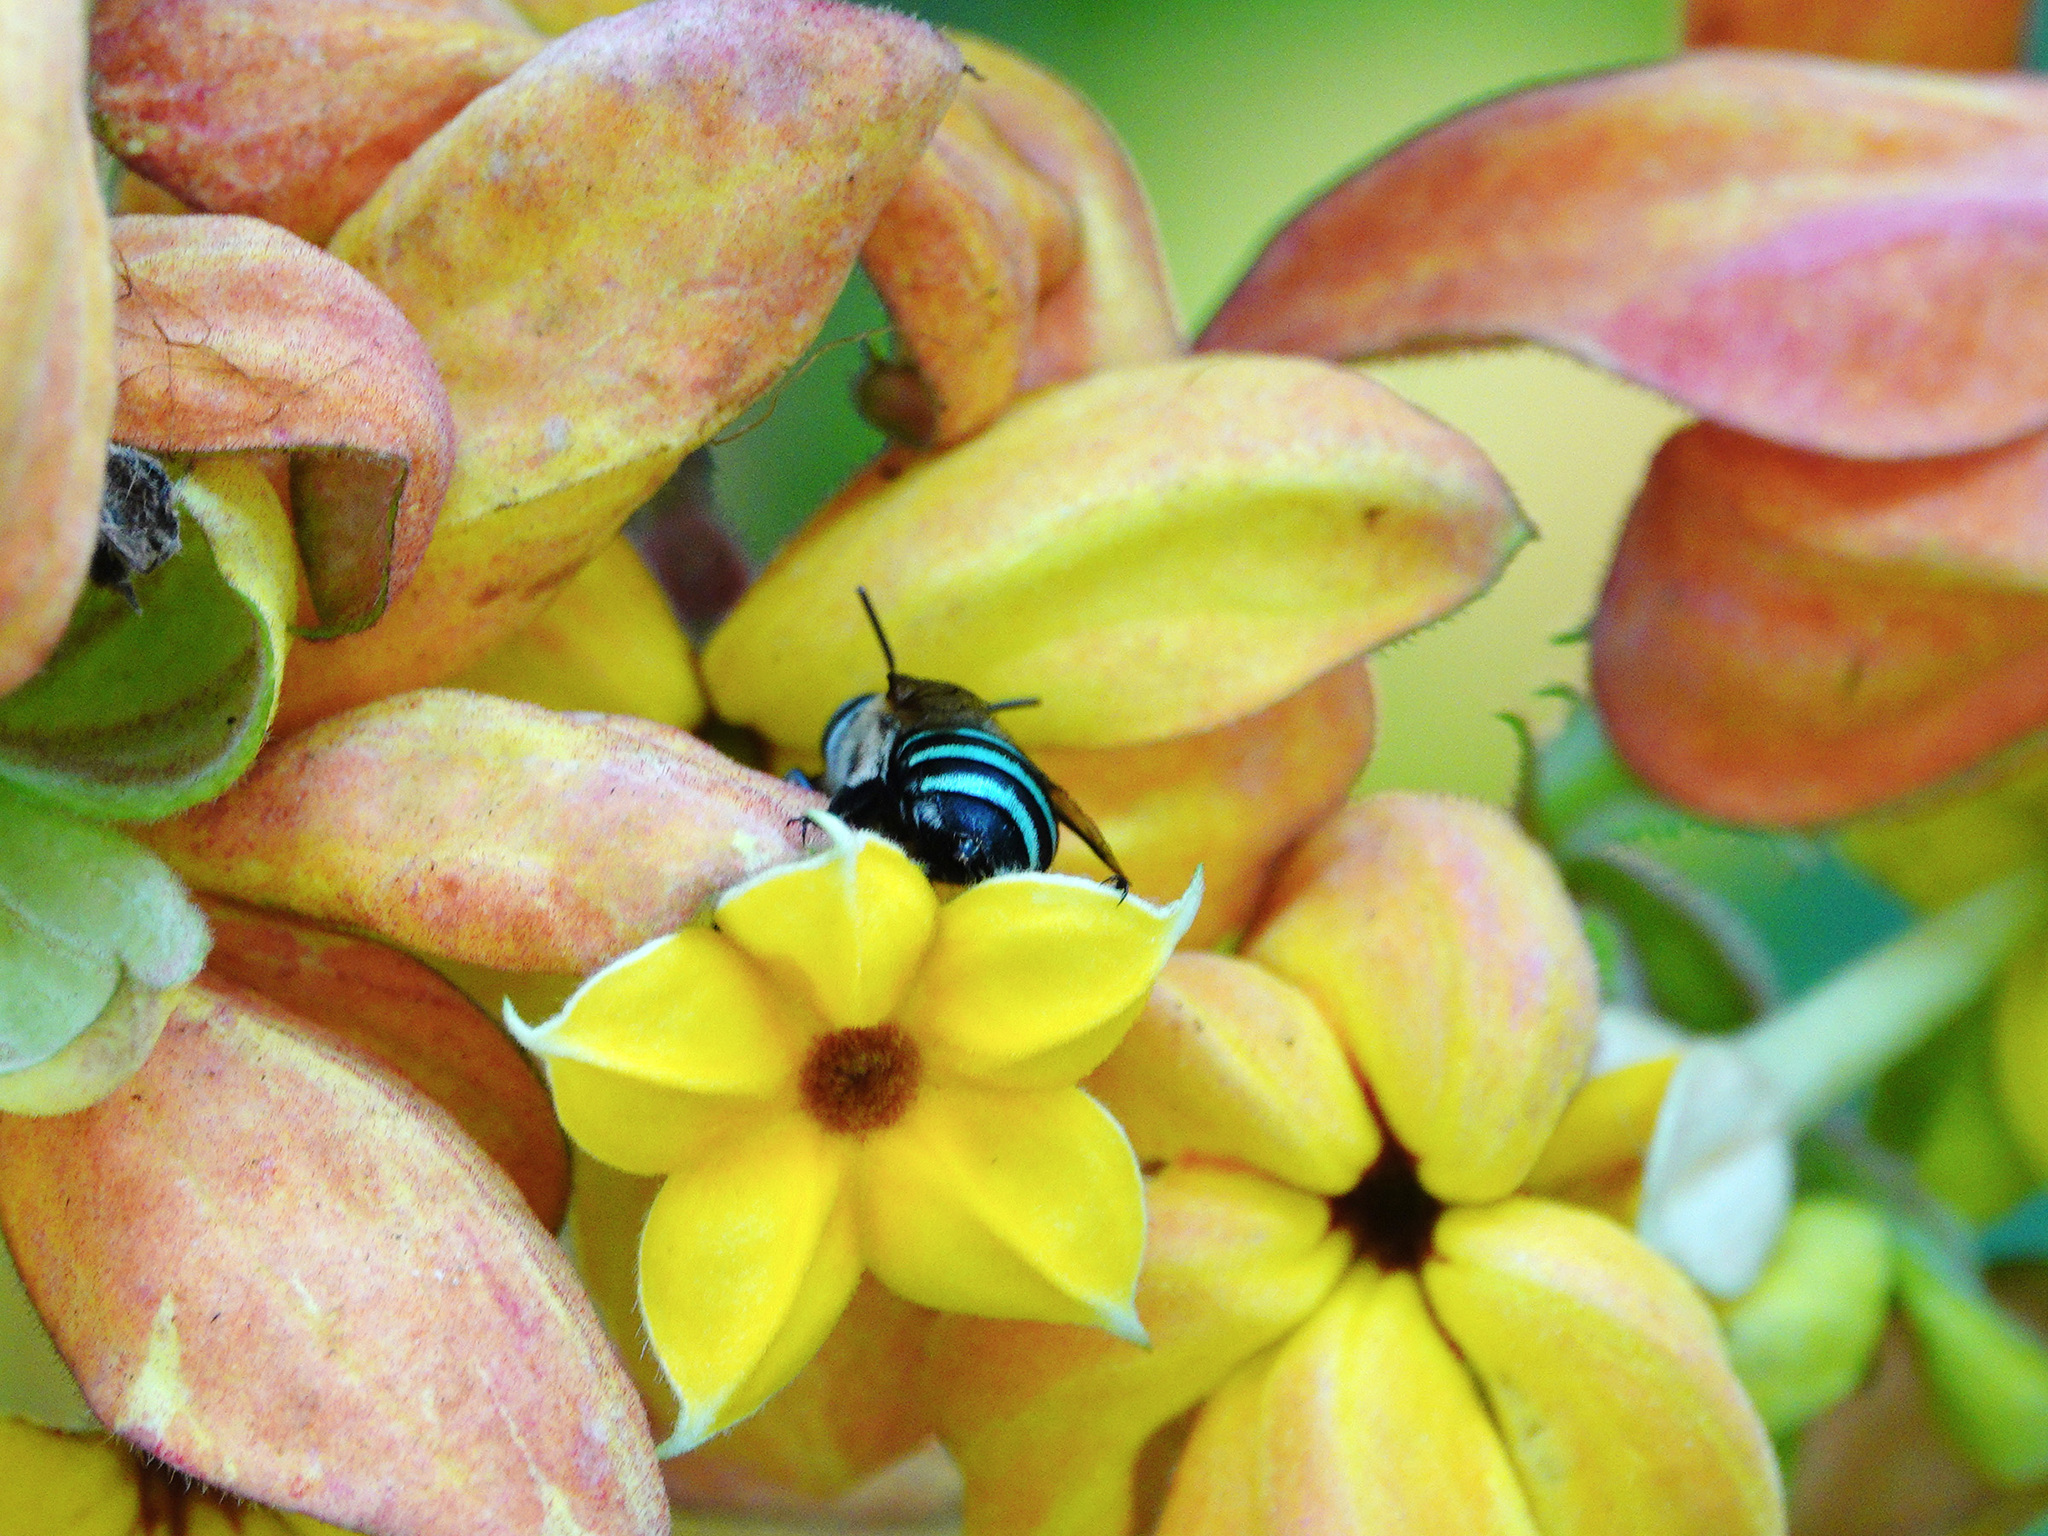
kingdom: Animalia
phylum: Arthropoda
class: Insecta
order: Hymenoptera
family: Apidae
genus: Amegilla
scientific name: Amegilla andrewsi
